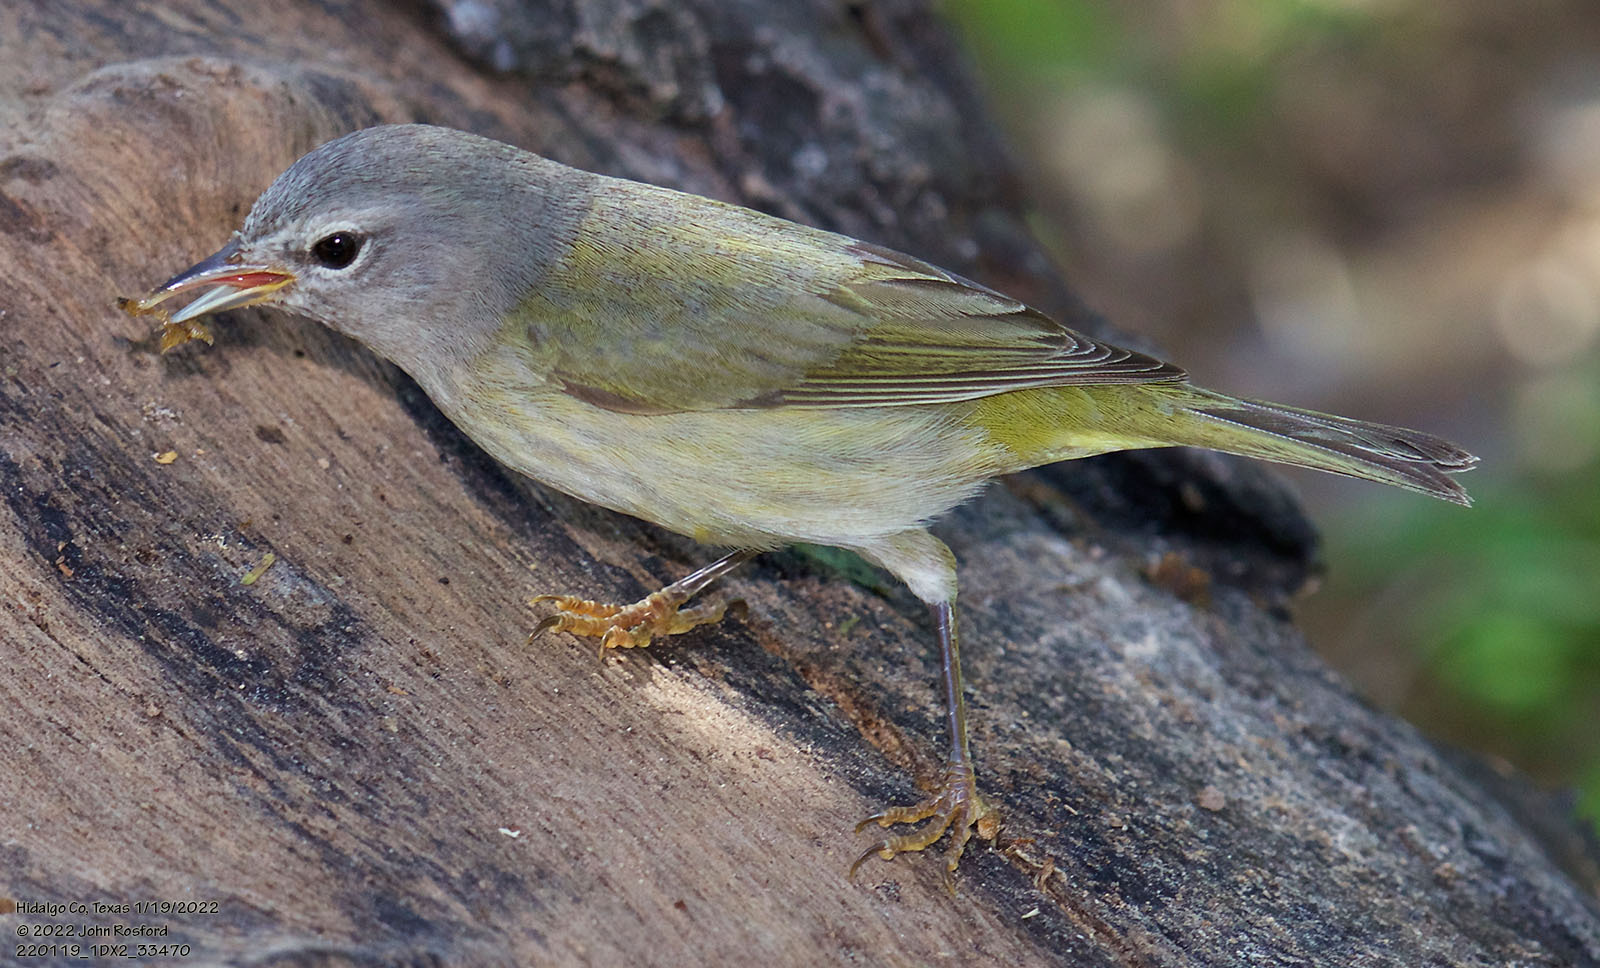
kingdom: Animalia
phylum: Chordata
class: Aves
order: Passeriformes
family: Parulidae
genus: Leiothlypis
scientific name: Leiothlypis celata
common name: Orange-crowned warbler
